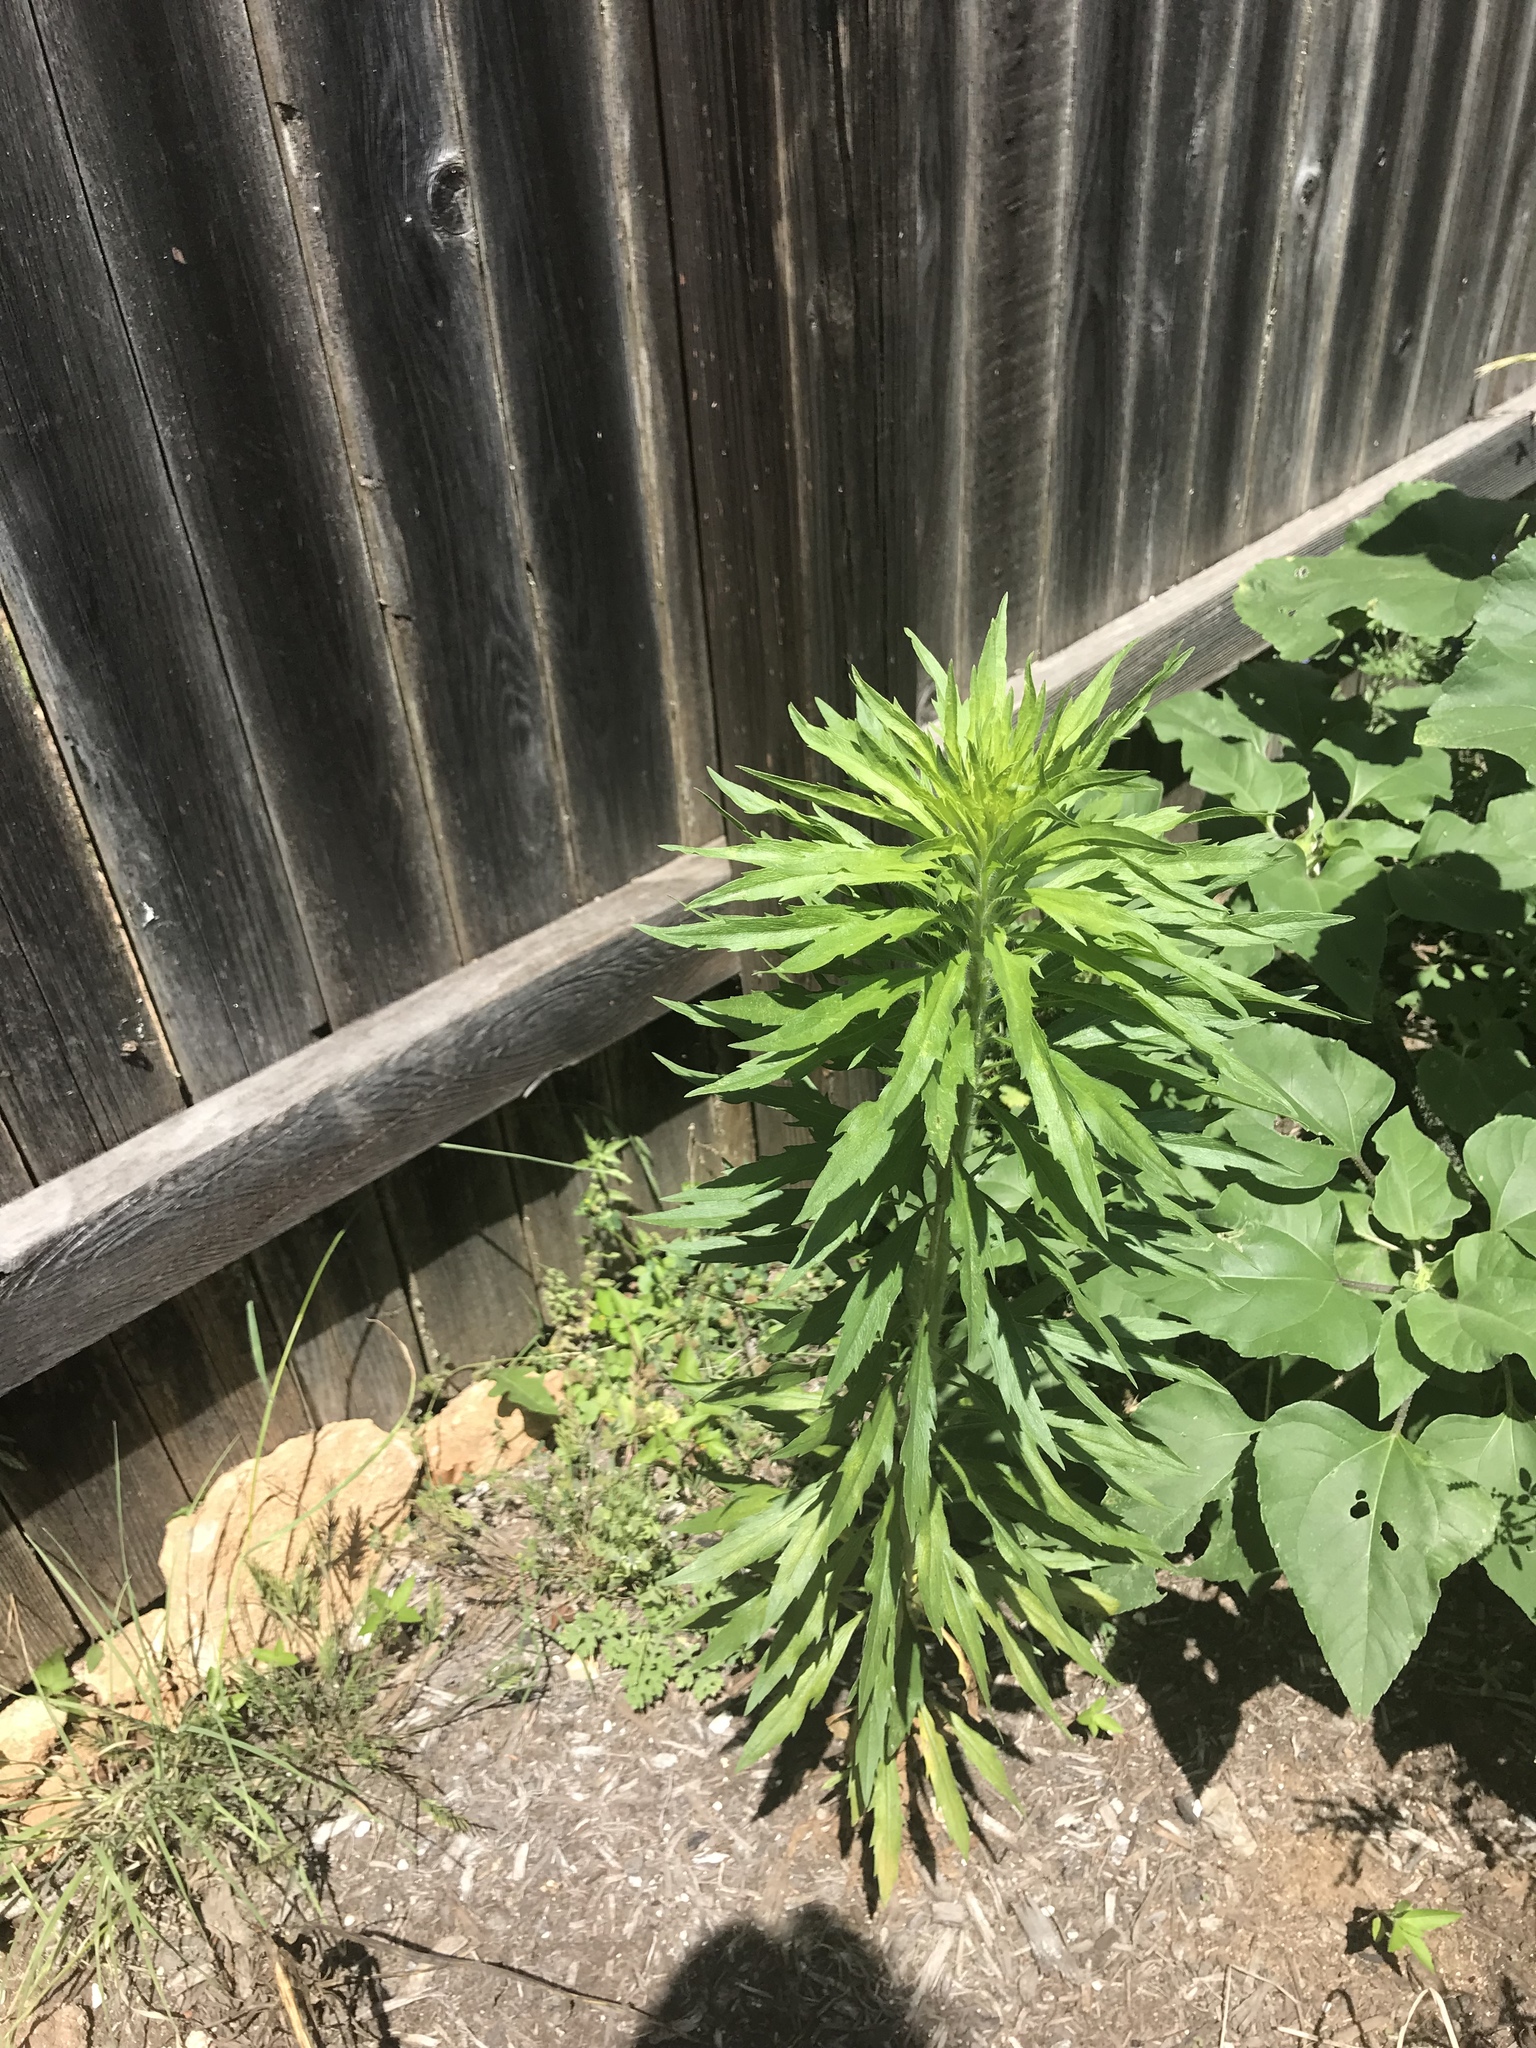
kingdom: Plantae
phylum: Tracheophyta
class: Magnoliopsida
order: Asterales
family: Asteraceae
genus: Erigeron
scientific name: Erigeron canadensis
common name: Canadian fleabane
